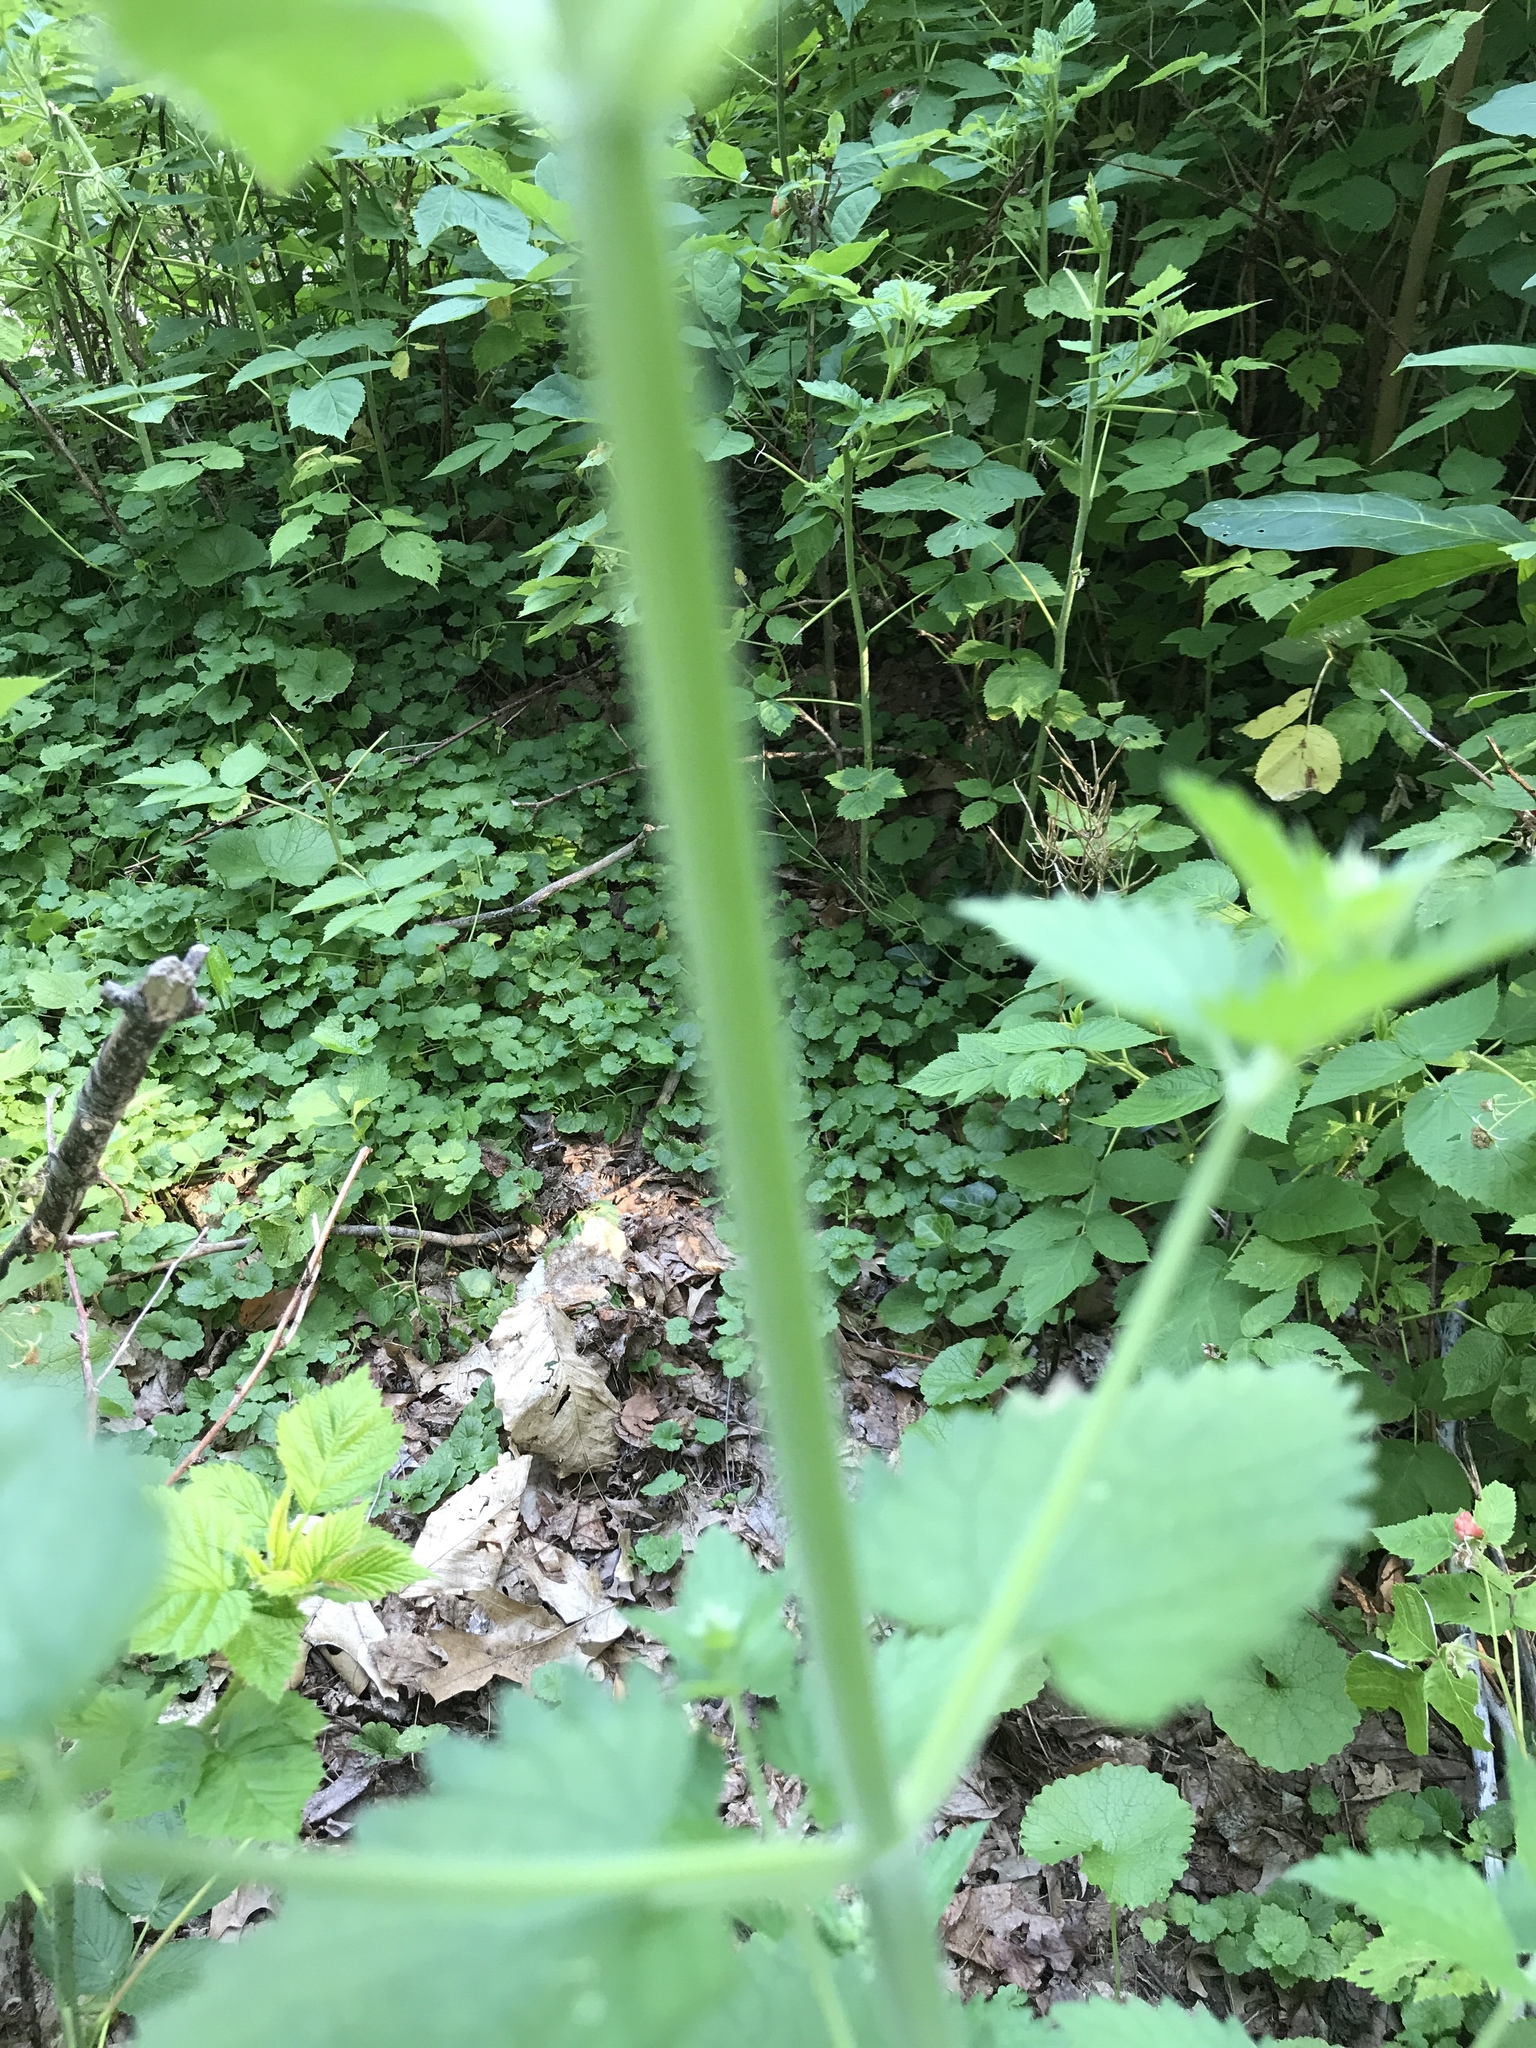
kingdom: Plantae
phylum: Tracheophyta
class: Magnoliopsida
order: Lamiales
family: Lamiaceae
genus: Nepeta
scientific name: Nepeta cataria
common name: Catnip
